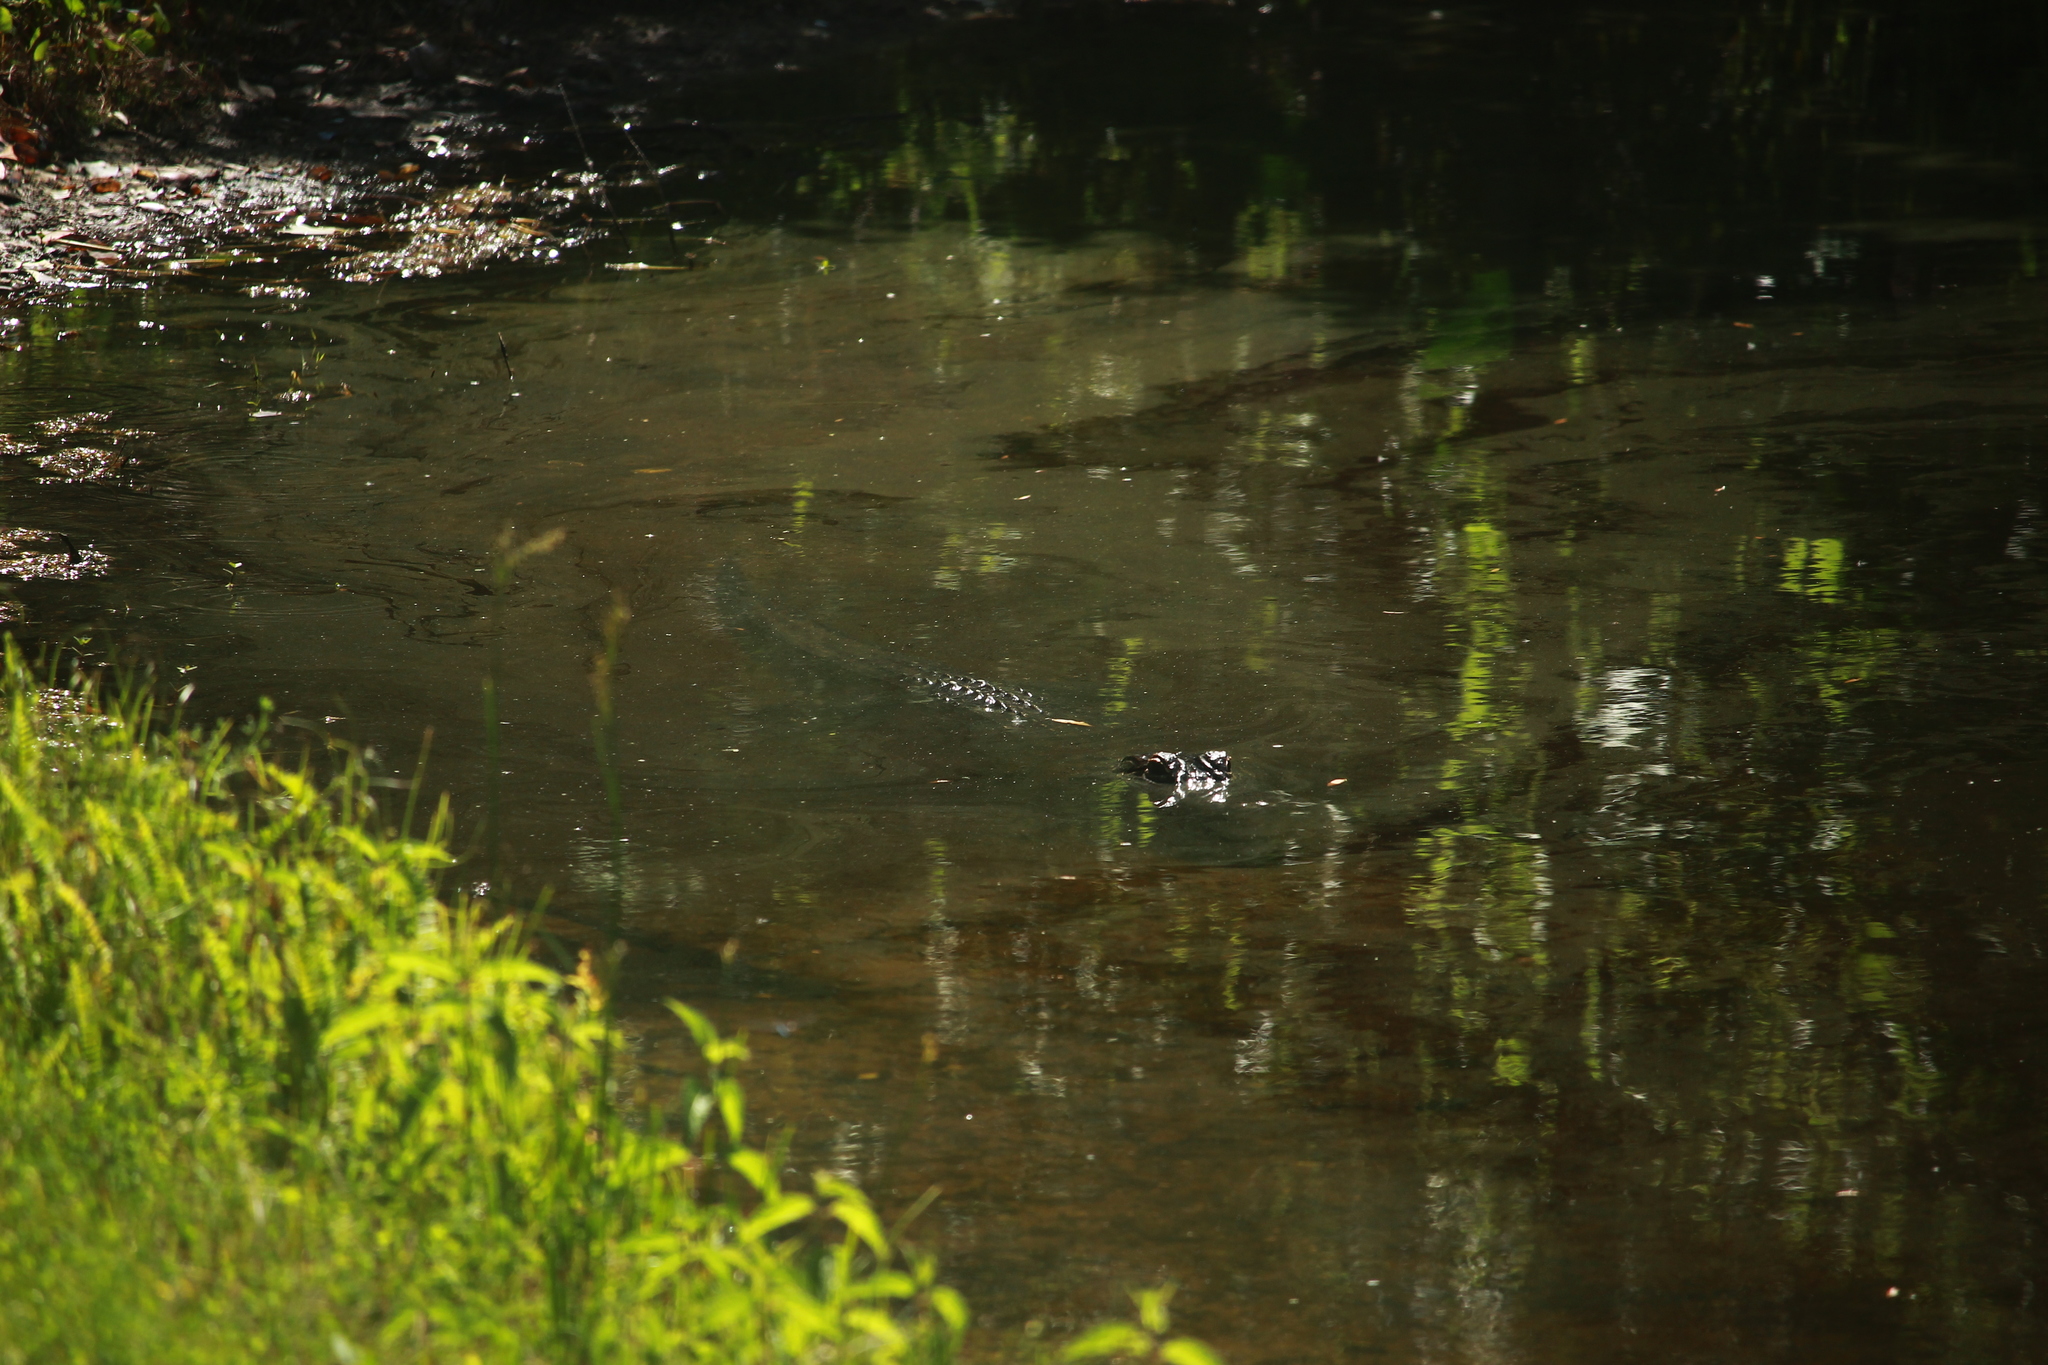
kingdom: Animalia
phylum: Chordata
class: Crocodylia
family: Alligatoridae
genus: Alligator
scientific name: Alligator mississippiensis
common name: American alligator
